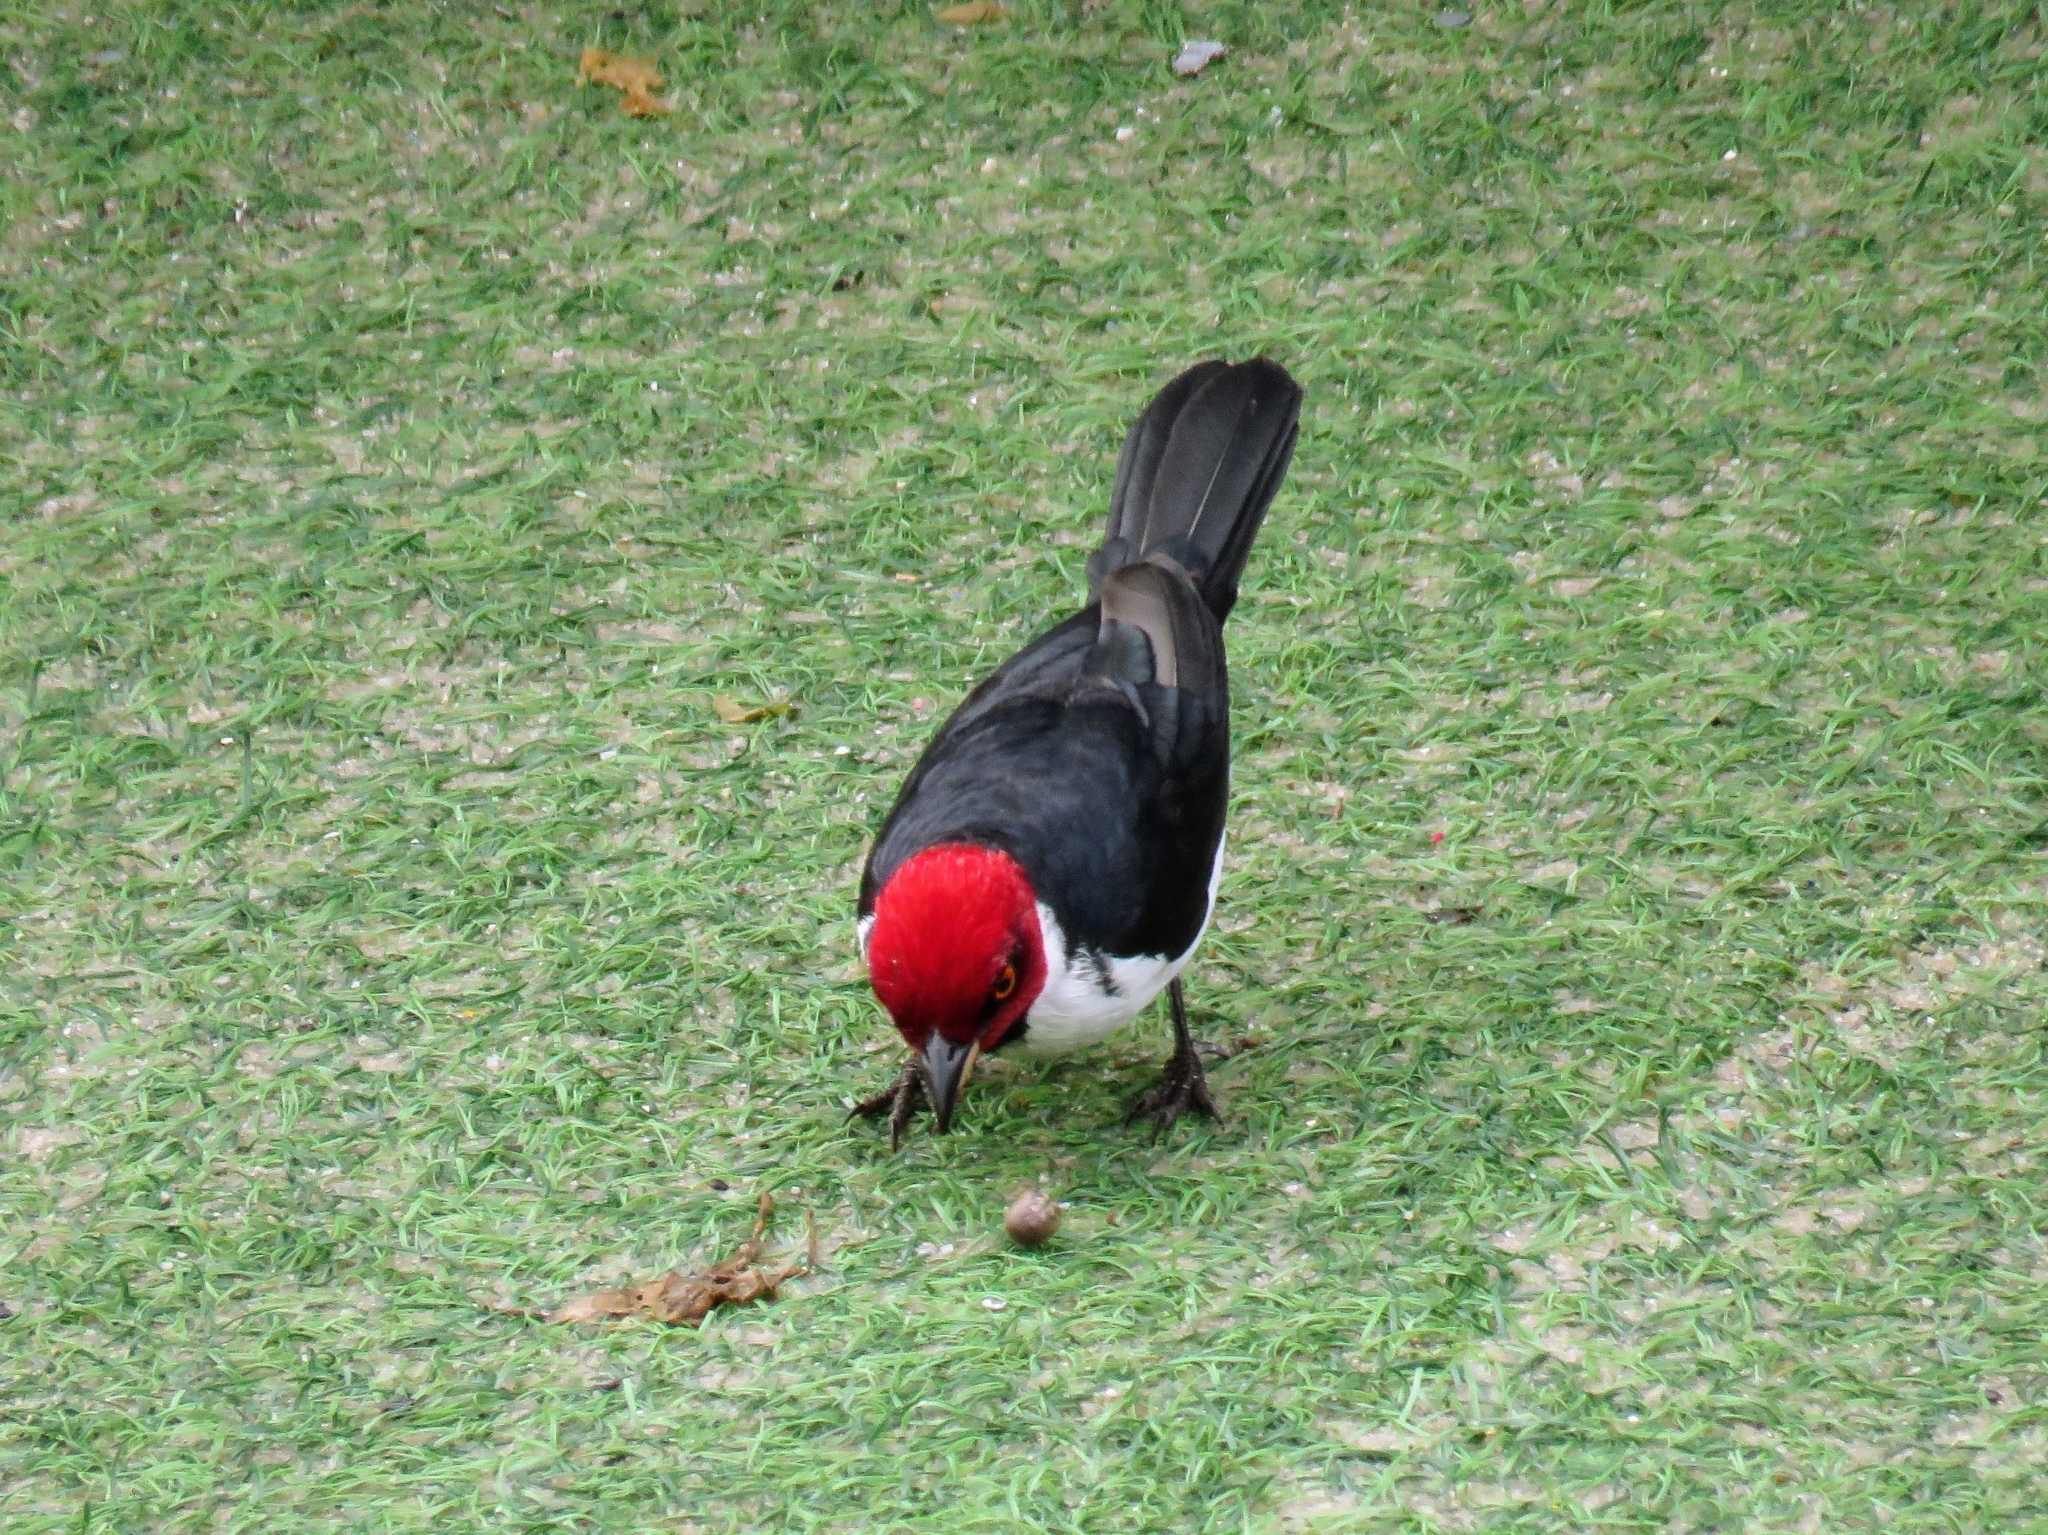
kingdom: Animalia
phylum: Chordata
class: Aves
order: Passeriformes
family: Thraupidae
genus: Paroaria
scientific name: Paroaria gularis
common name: Red-capped cardinal
